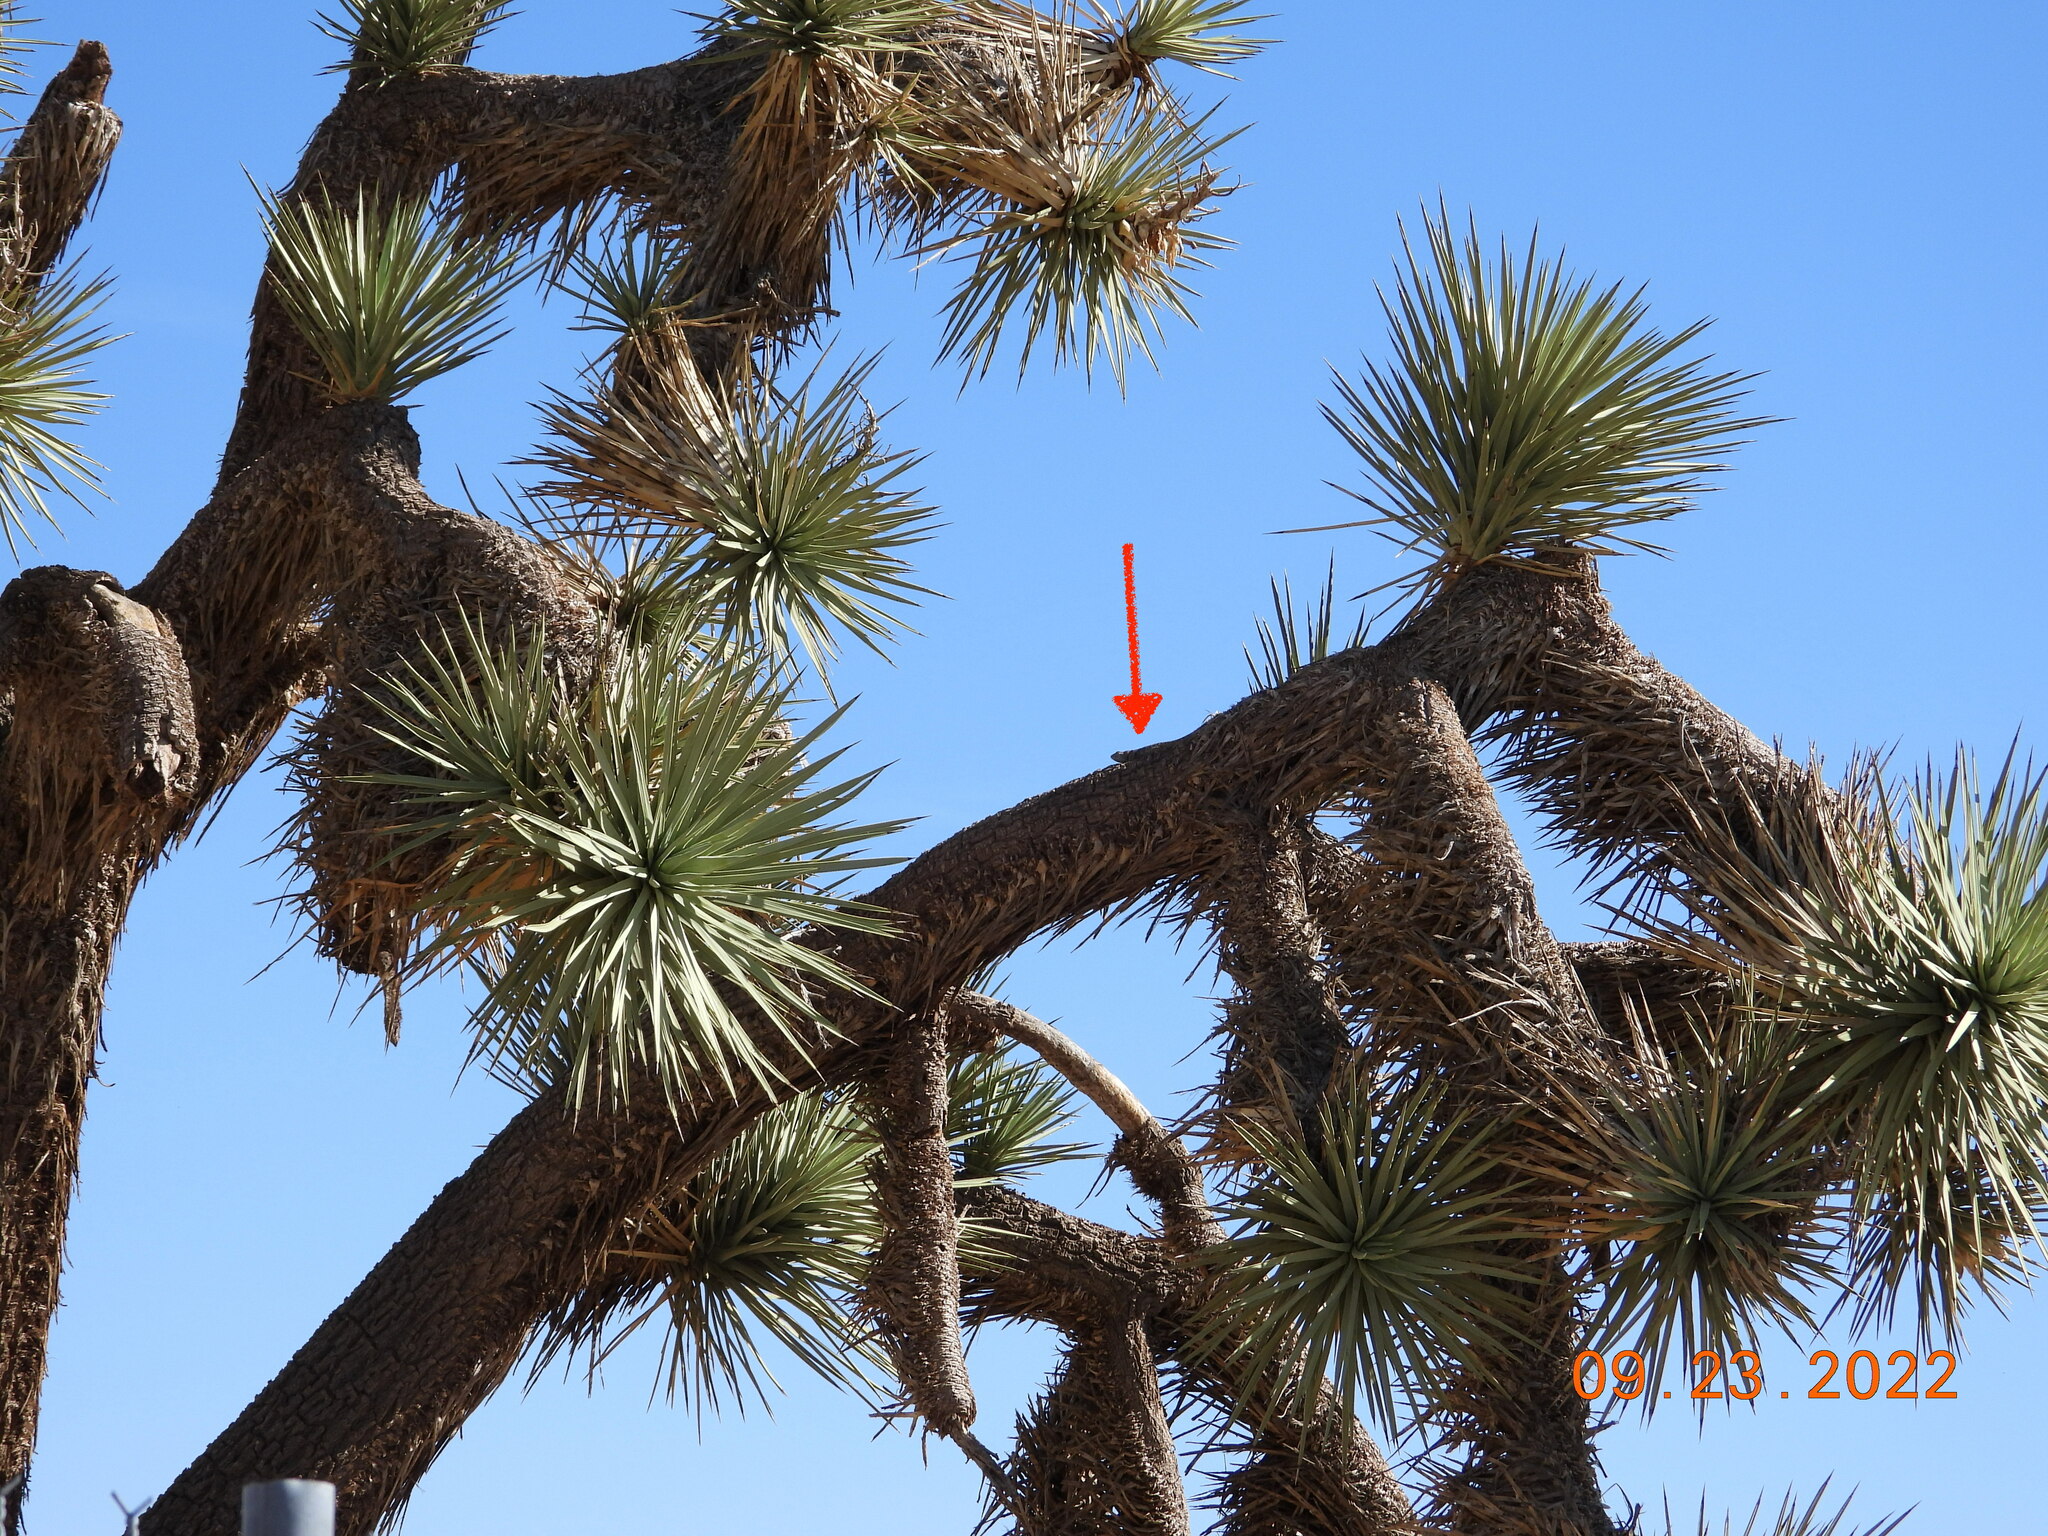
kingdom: Animalia
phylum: Chordata
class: Squamata
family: Phrynosomatidae
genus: Sceloporus
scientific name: Sceloporus magister
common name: Desert spiny lizard
